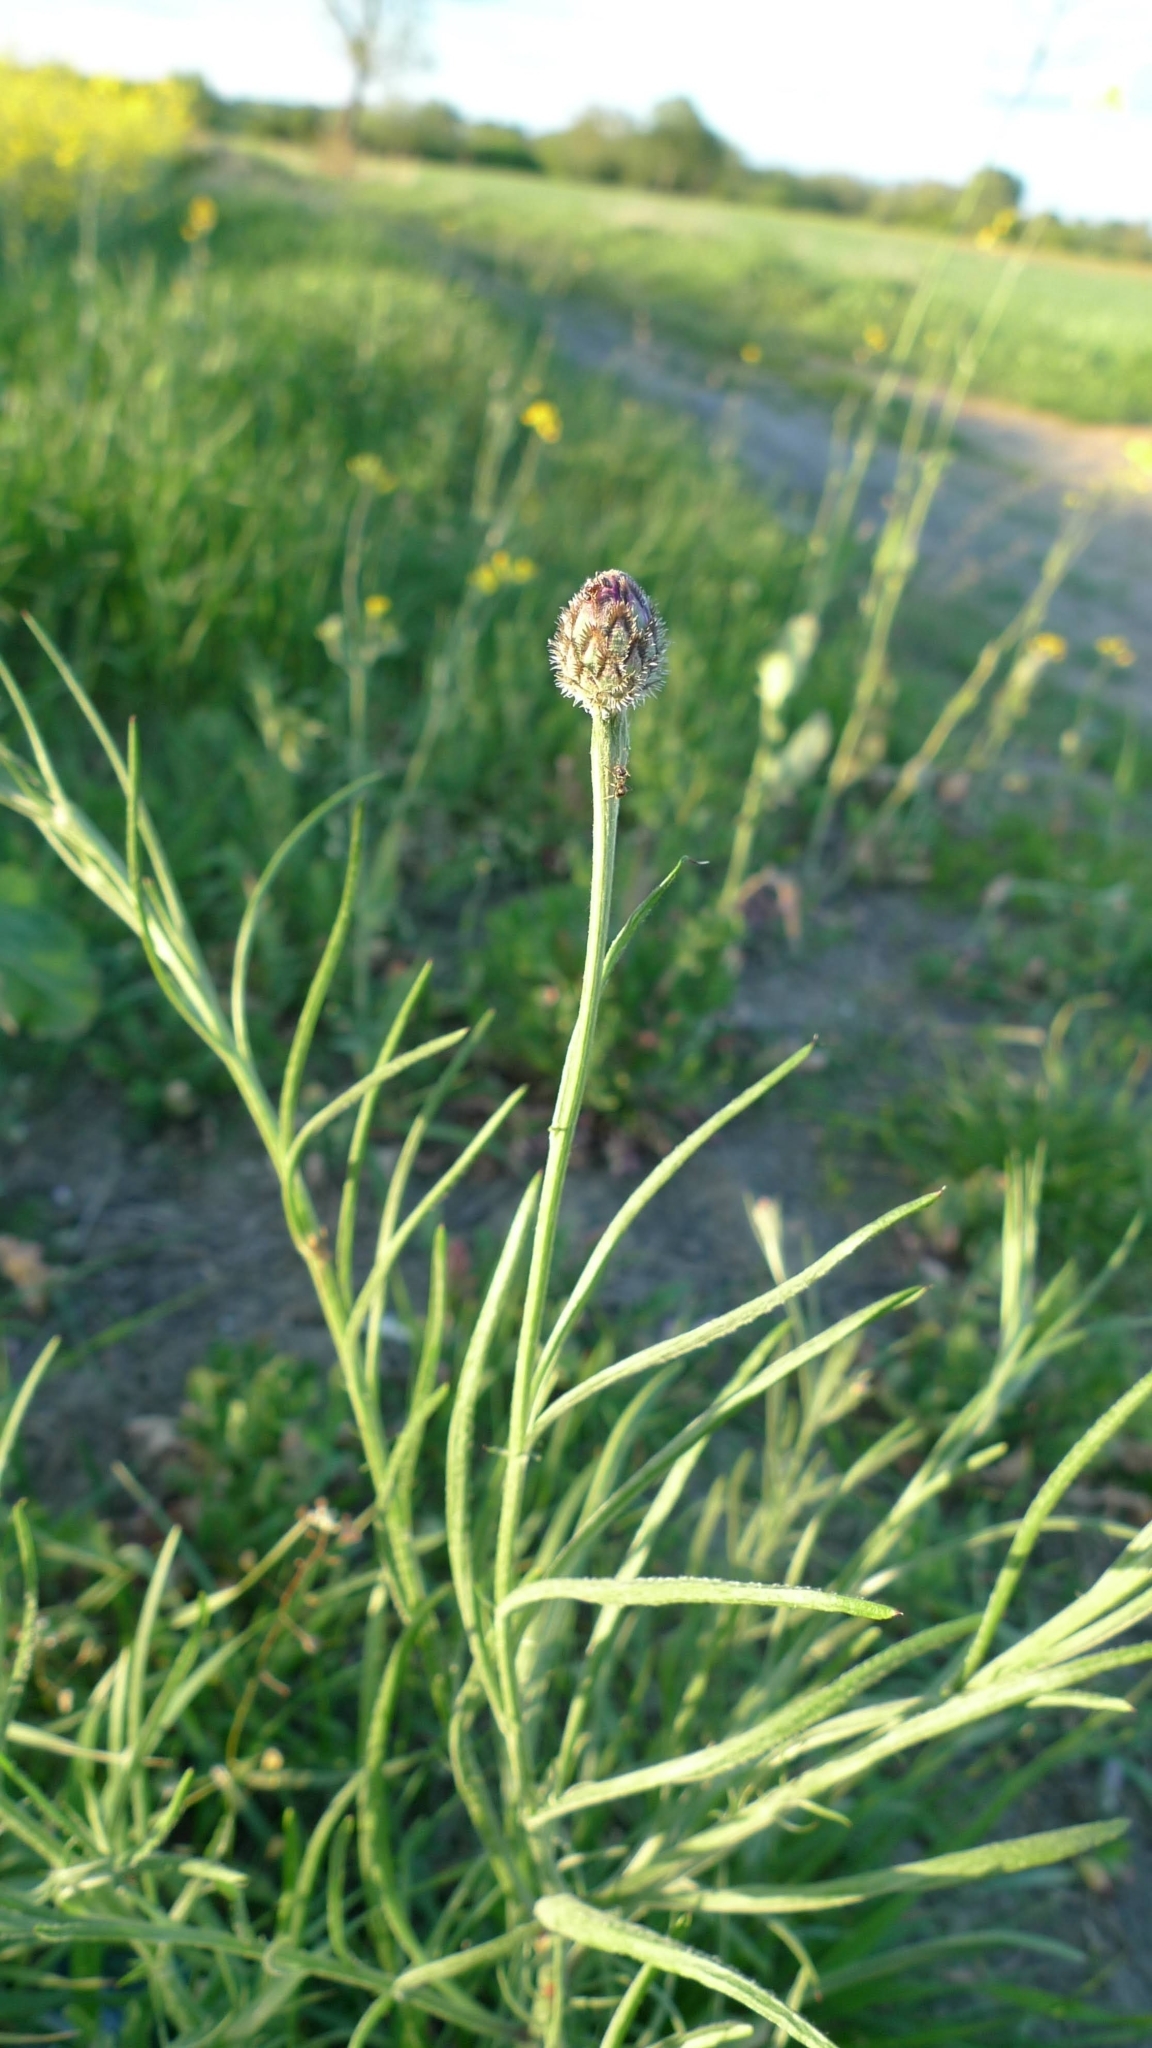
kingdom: Plantae
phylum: Tracheophyta
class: Magnoliopsida
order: Asterales
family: Asteraceae
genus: Centaurea
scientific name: Centaurea cyanus
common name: Cornflower
